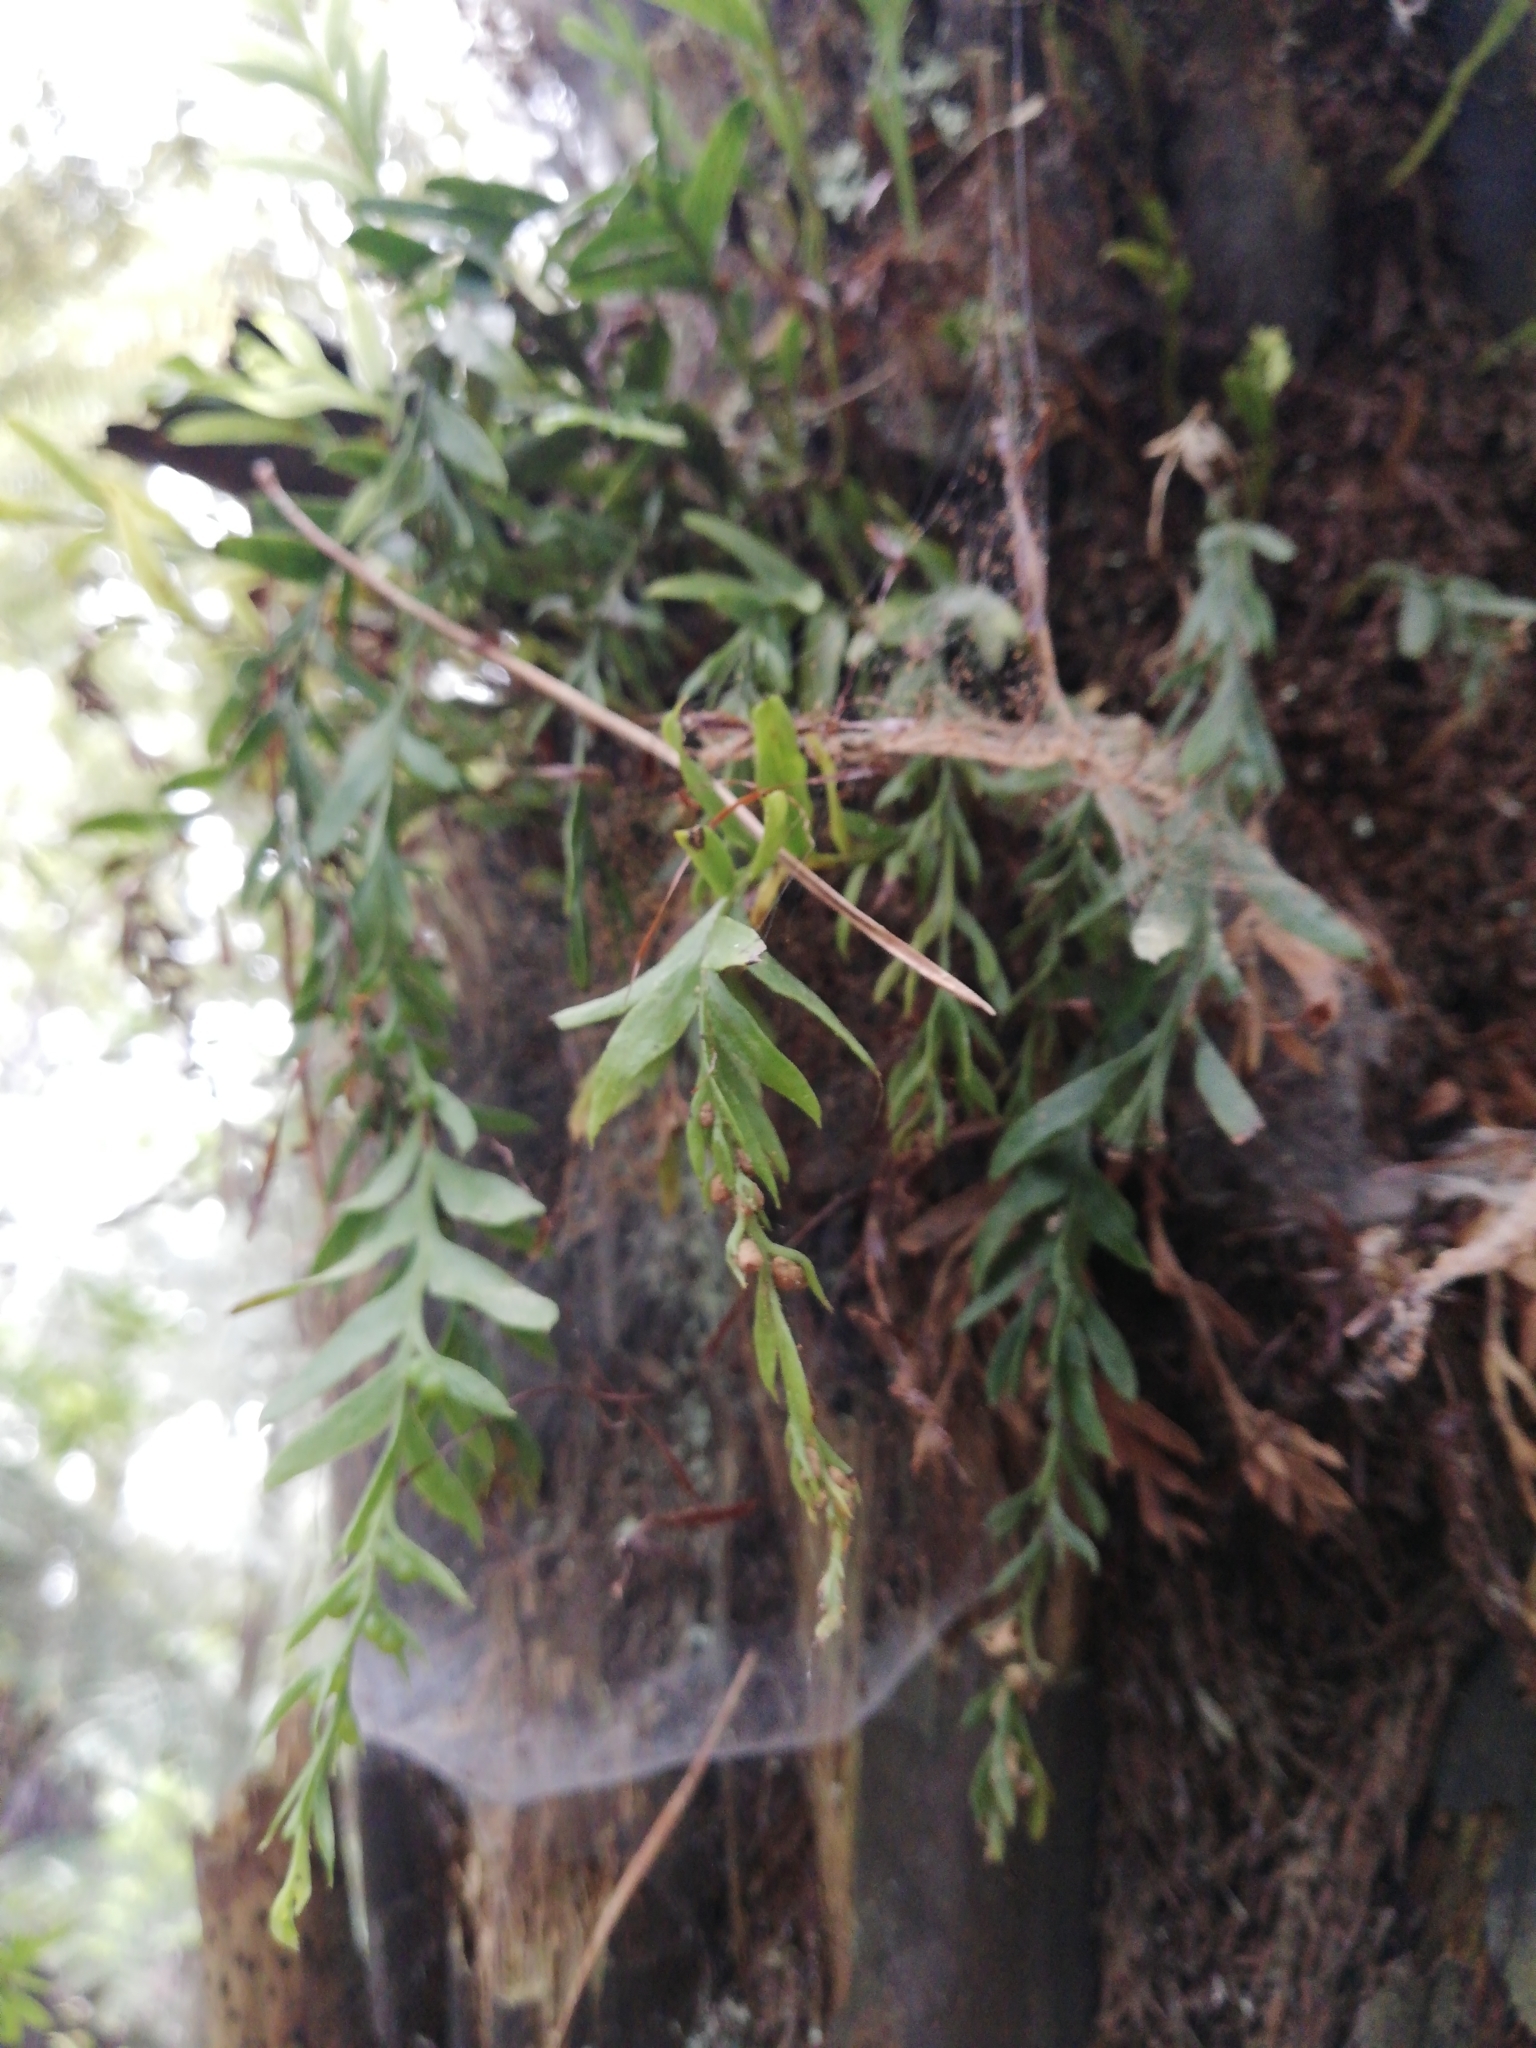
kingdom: Plantae
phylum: Tracheophyta
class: Polypodiopsida
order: Psilotales
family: Psilotaceae
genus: Tmesipteris
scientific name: Tmesipteris elongata
